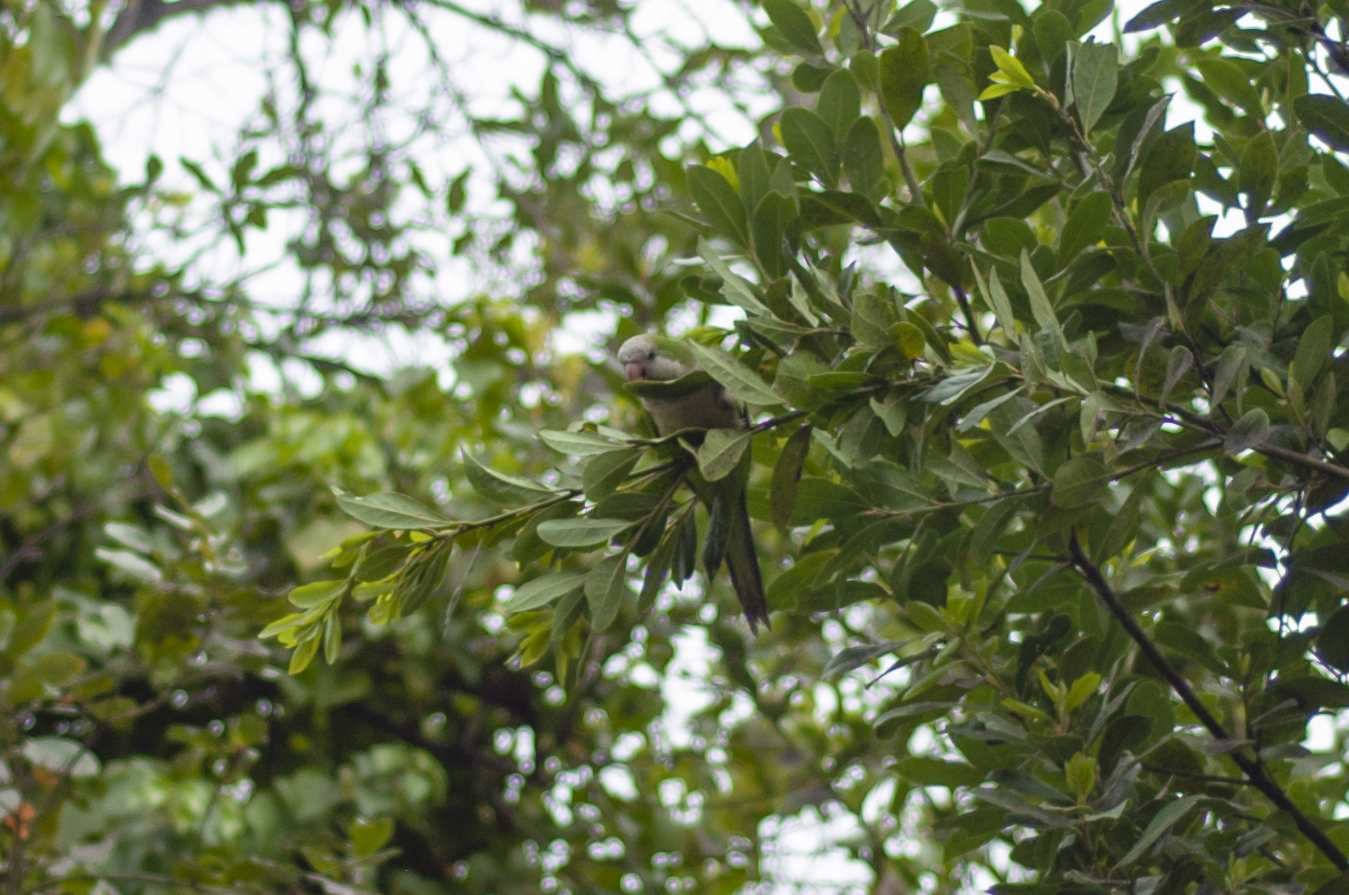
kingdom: Animalia
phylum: Chordata
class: Aves
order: Psittaciformes
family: Psittacidae
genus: Myiopsitta
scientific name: Myiopsitta monachus
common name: Monk parakeet
